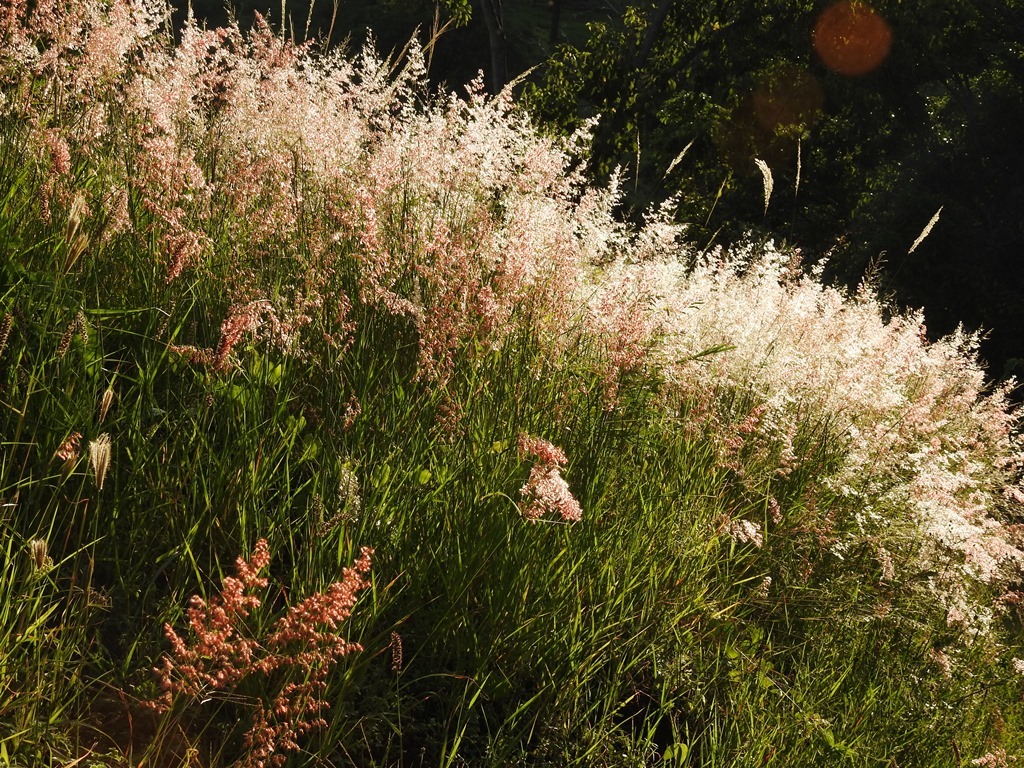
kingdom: Plantae
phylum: Tracheophyta
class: Liliopsida
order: Poales
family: Poaceae
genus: Melinis
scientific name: Melinis repens
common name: Rose natal grass
